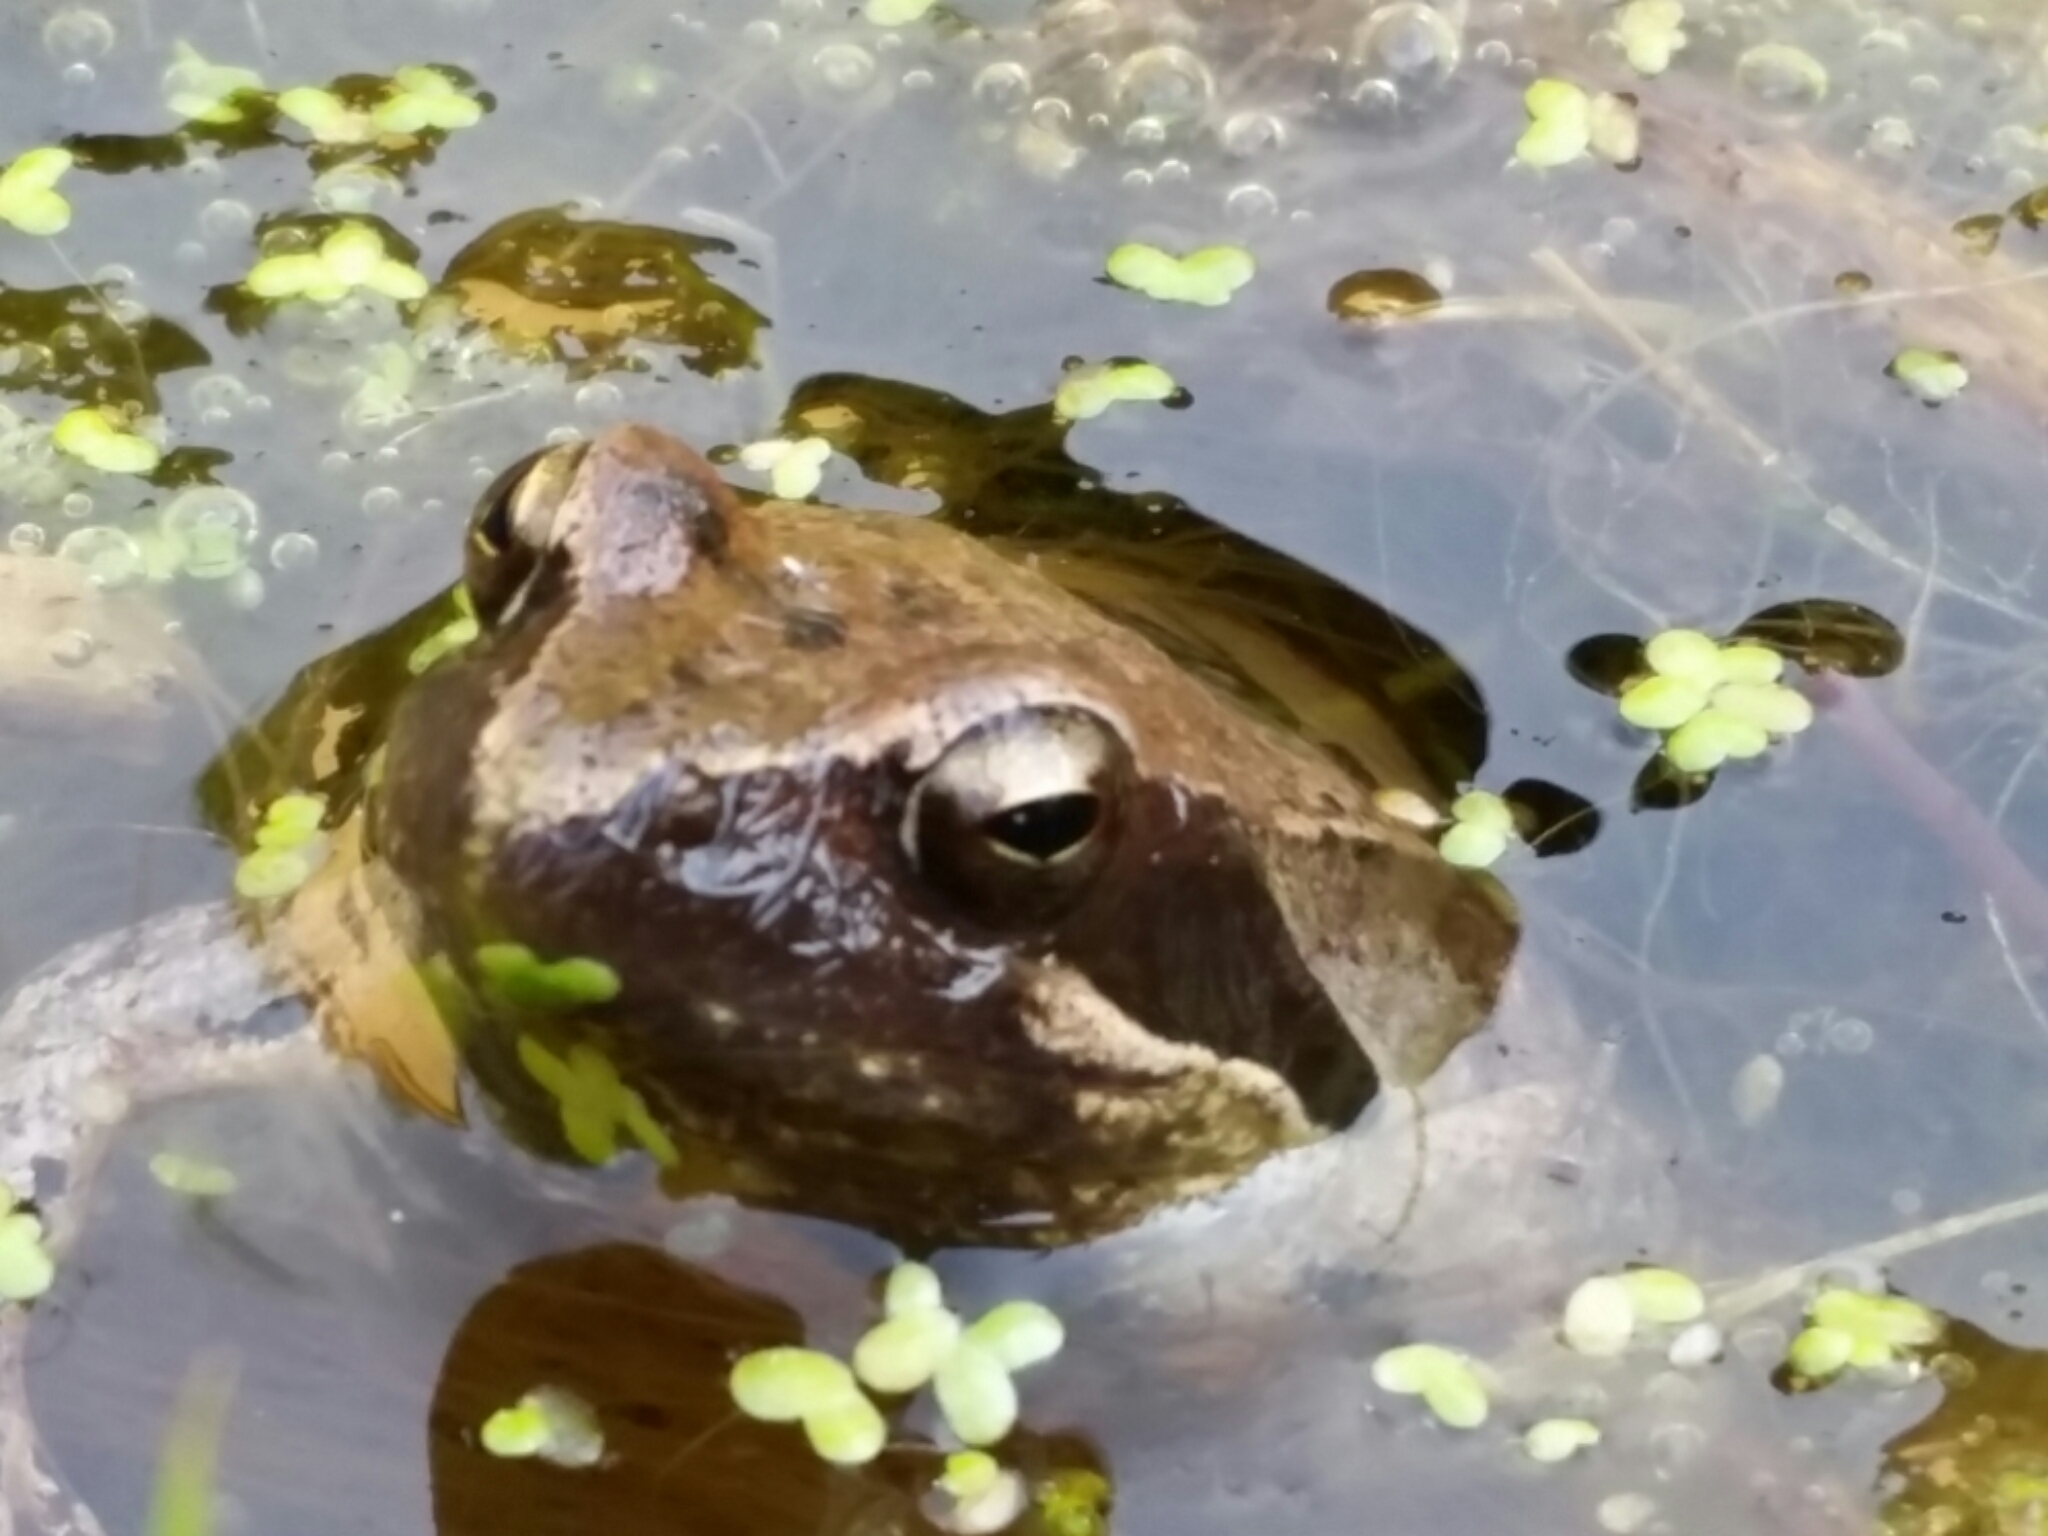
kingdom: Animalia
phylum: Chordata
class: Amphibia
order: Anura
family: Ranidae
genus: Rana
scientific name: Rana latastei
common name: Italian agile frog
